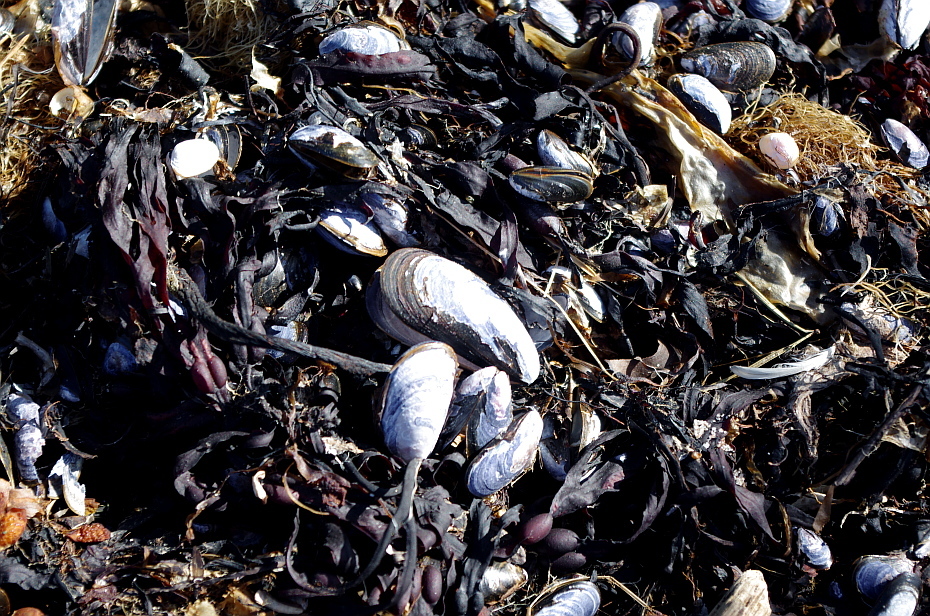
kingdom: Animalia
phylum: Mollusca
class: Bivalvia
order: Mytilida
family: Mytilidae
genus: Mytilus
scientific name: Mytilus edulis
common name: Blue mussel
